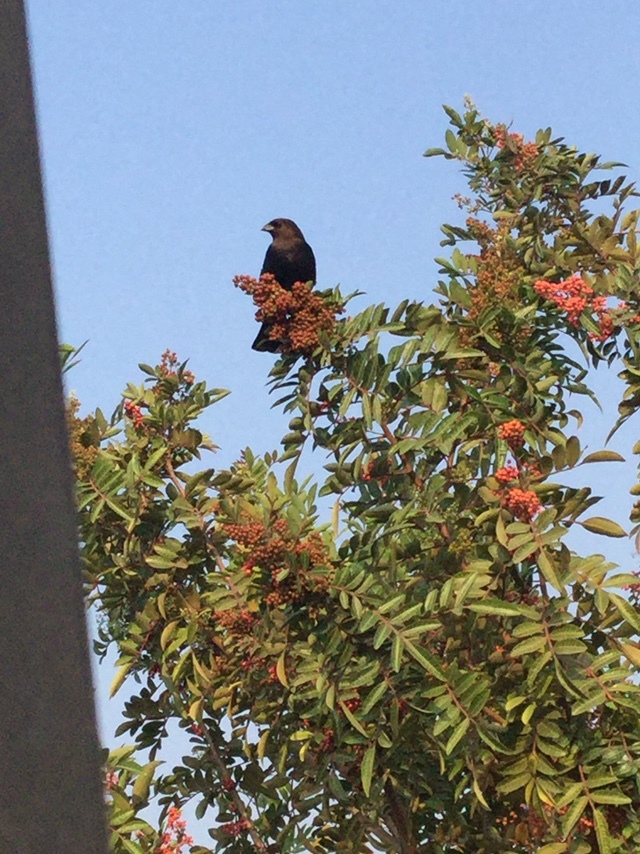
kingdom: Animalia
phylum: Chordata
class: Aves
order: Passeriformes
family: Icteridae
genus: Molothrus
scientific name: Molothrus ater
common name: Brown-headed cowbird
